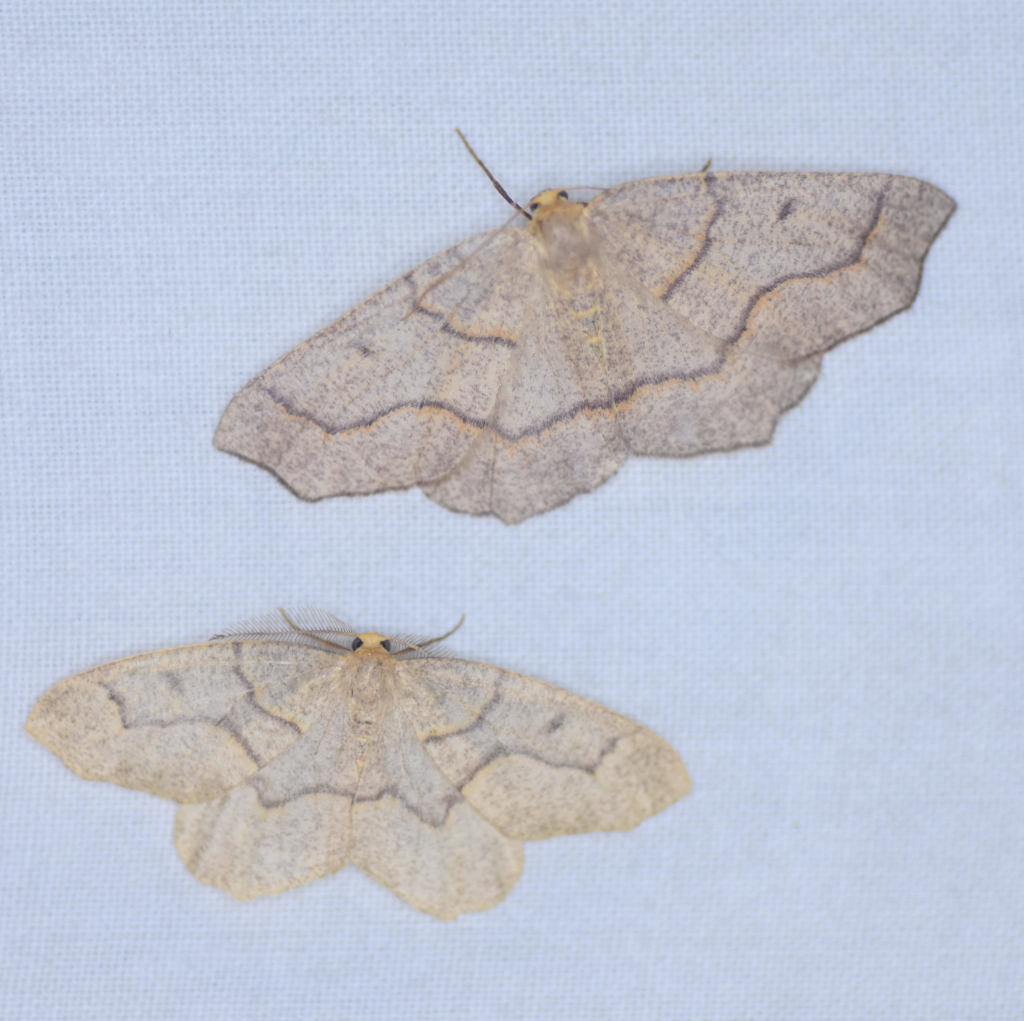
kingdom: Animalia
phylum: Arthropoda
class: Insecta
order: Lepidoptera
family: Geometridae
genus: Lambdina
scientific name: Lambdina fiscellaria
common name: Hemlock looper
